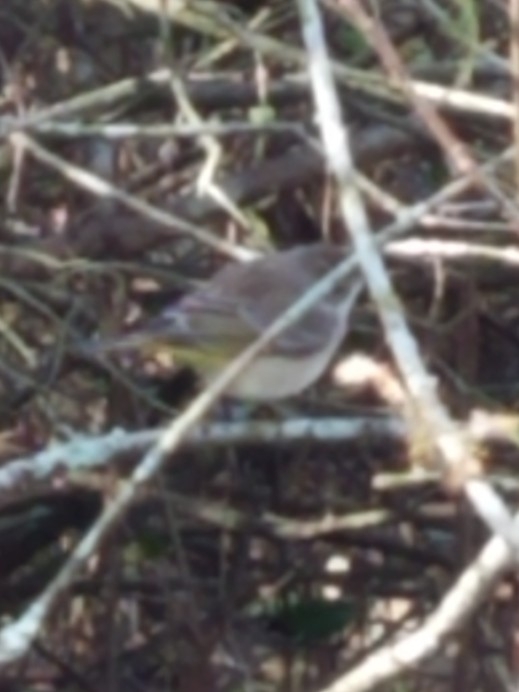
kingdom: Animalia
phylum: Chordata
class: Aves
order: Passeriformes
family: Parulidae
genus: Setophaga
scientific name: Setophaga palmarum
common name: Palm warbler
